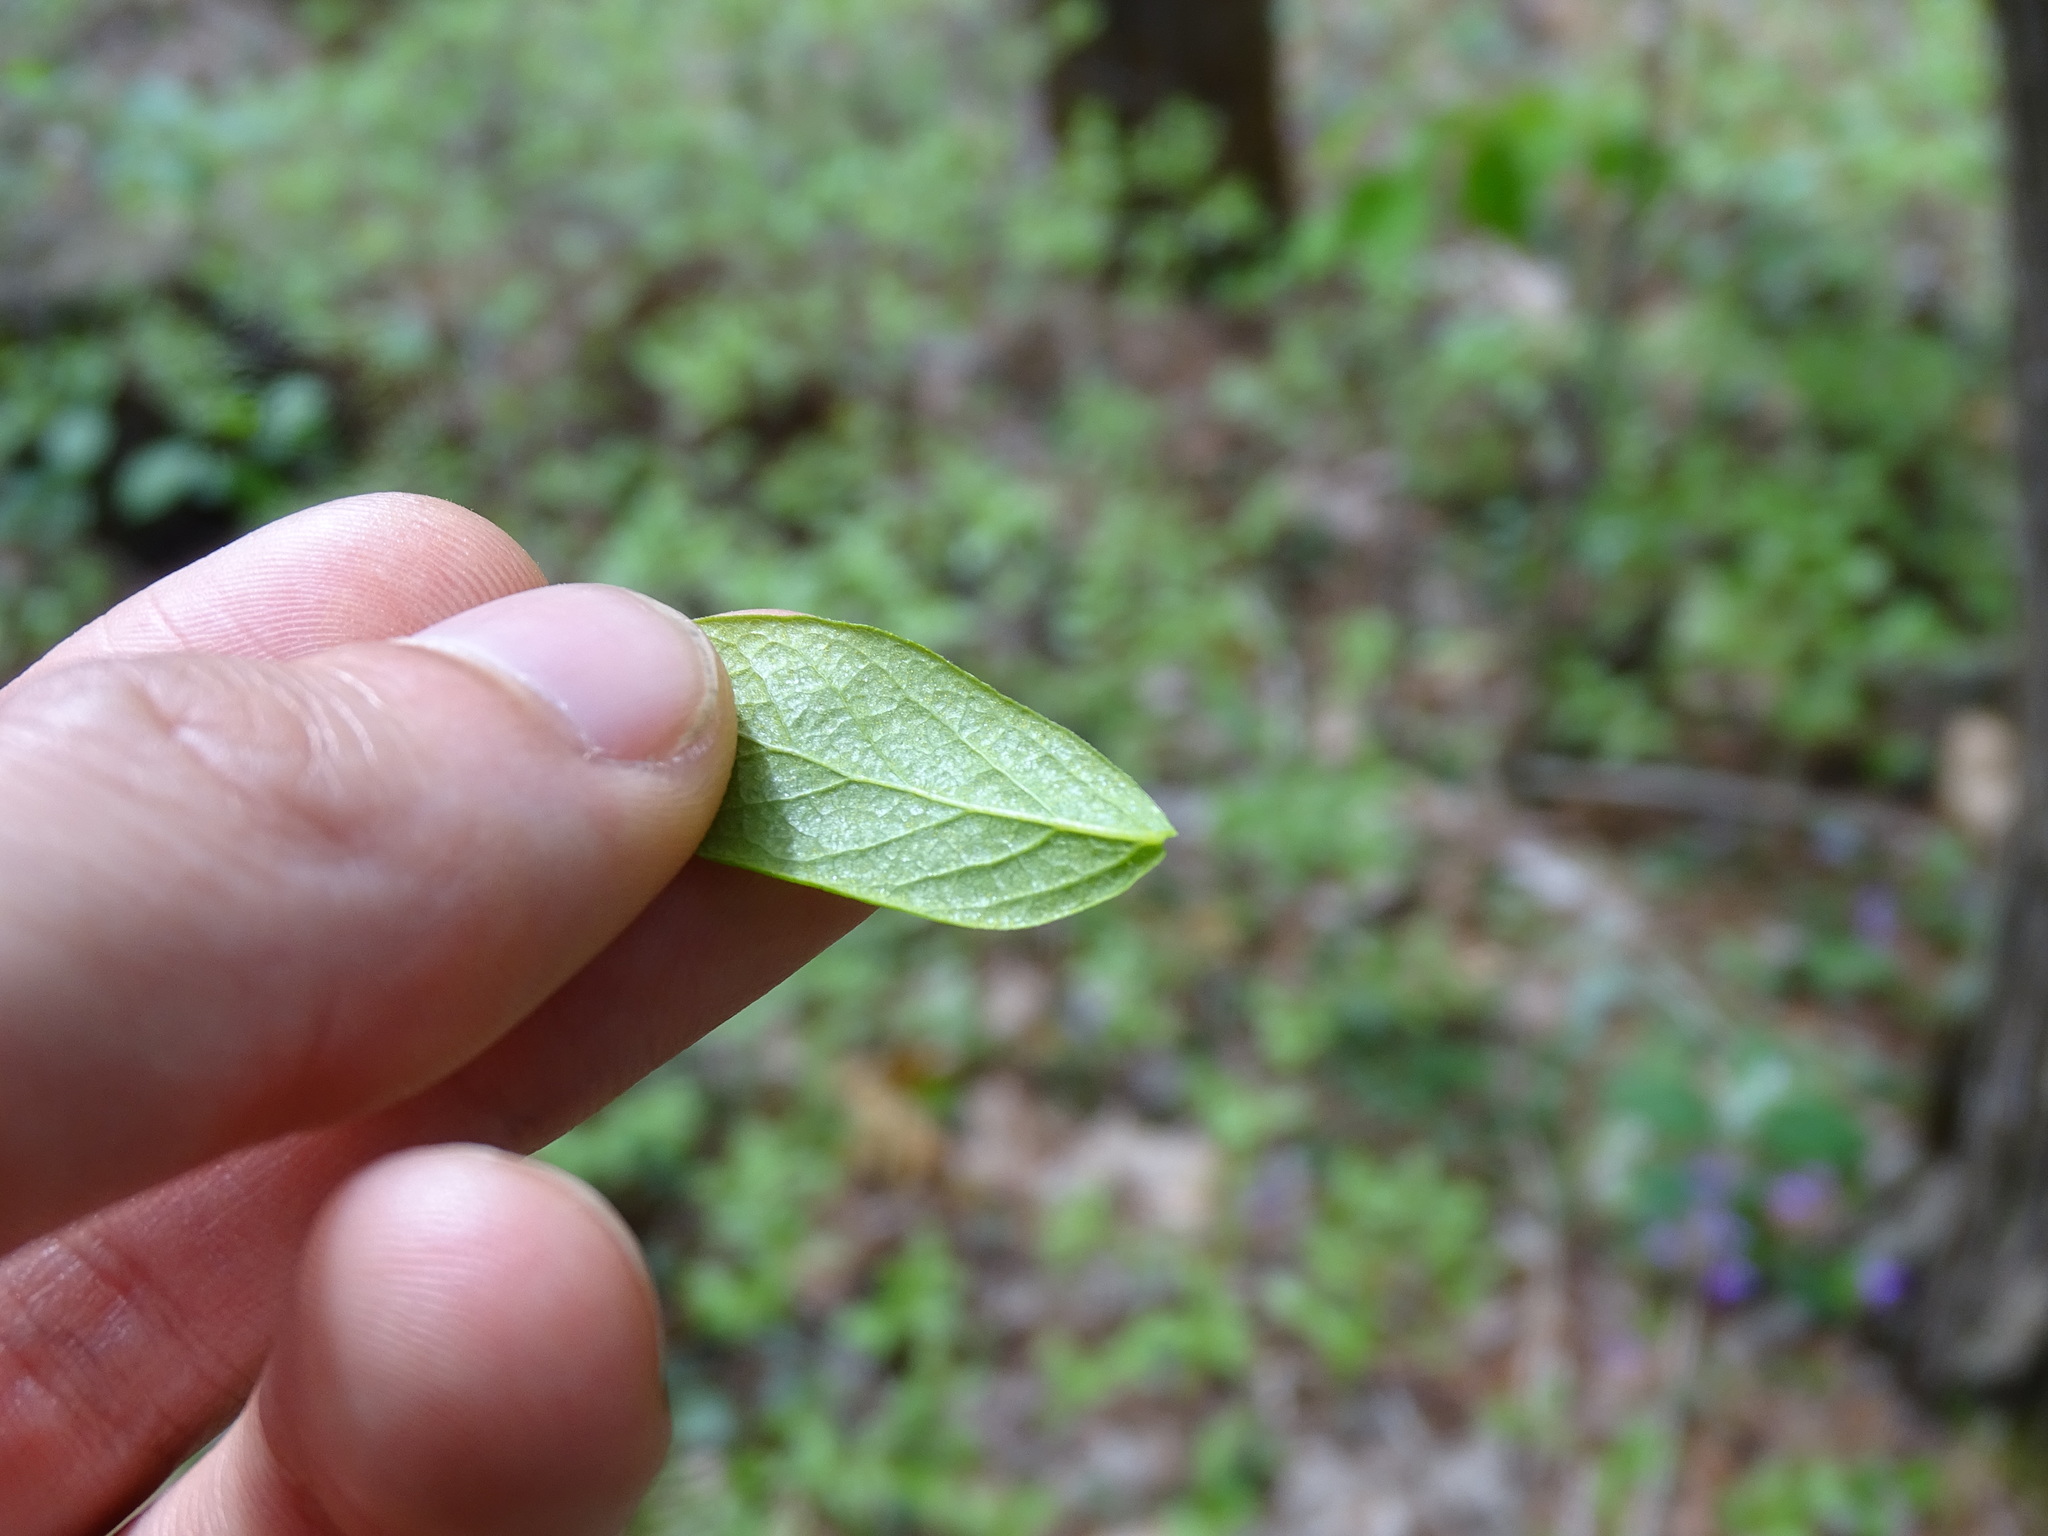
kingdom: Plantae
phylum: Tracheophyta
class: Magnoliopsida
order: Ericales
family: Ericaceae
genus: Gaylussacia
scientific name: Gaylussacia baccata
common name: Black huckleberry
